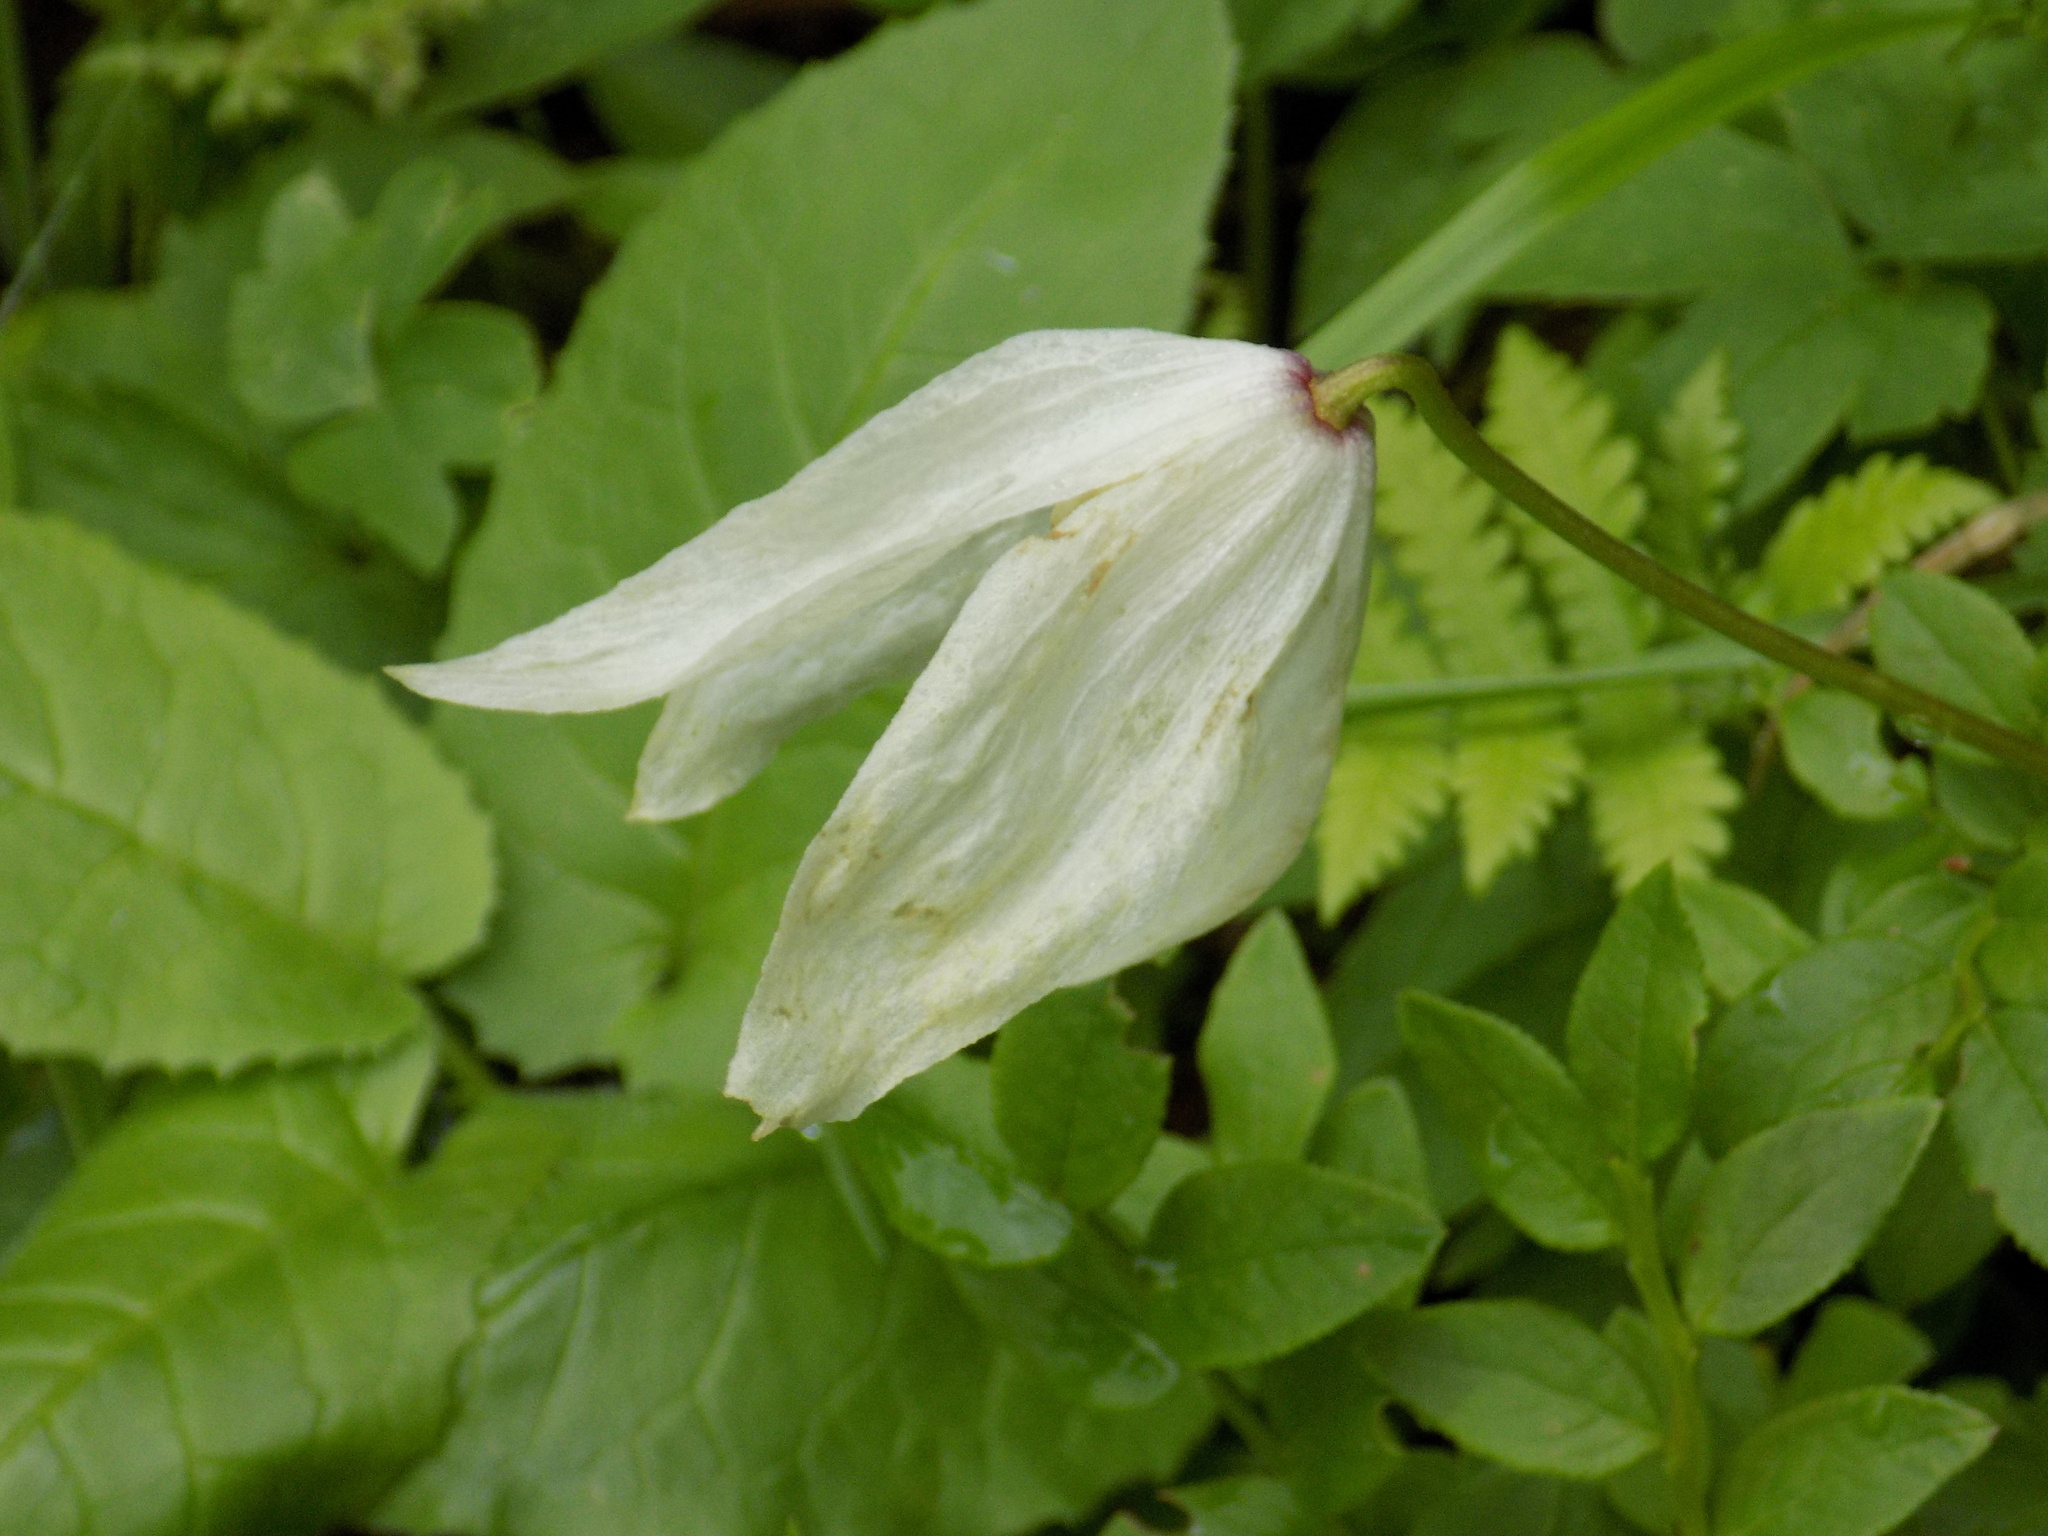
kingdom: Plantae
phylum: Tracheophyta
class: Magnoliopsida
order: Ranunculales
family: Ranunculaceae
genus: Clematis
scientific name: Clematis sibirica
